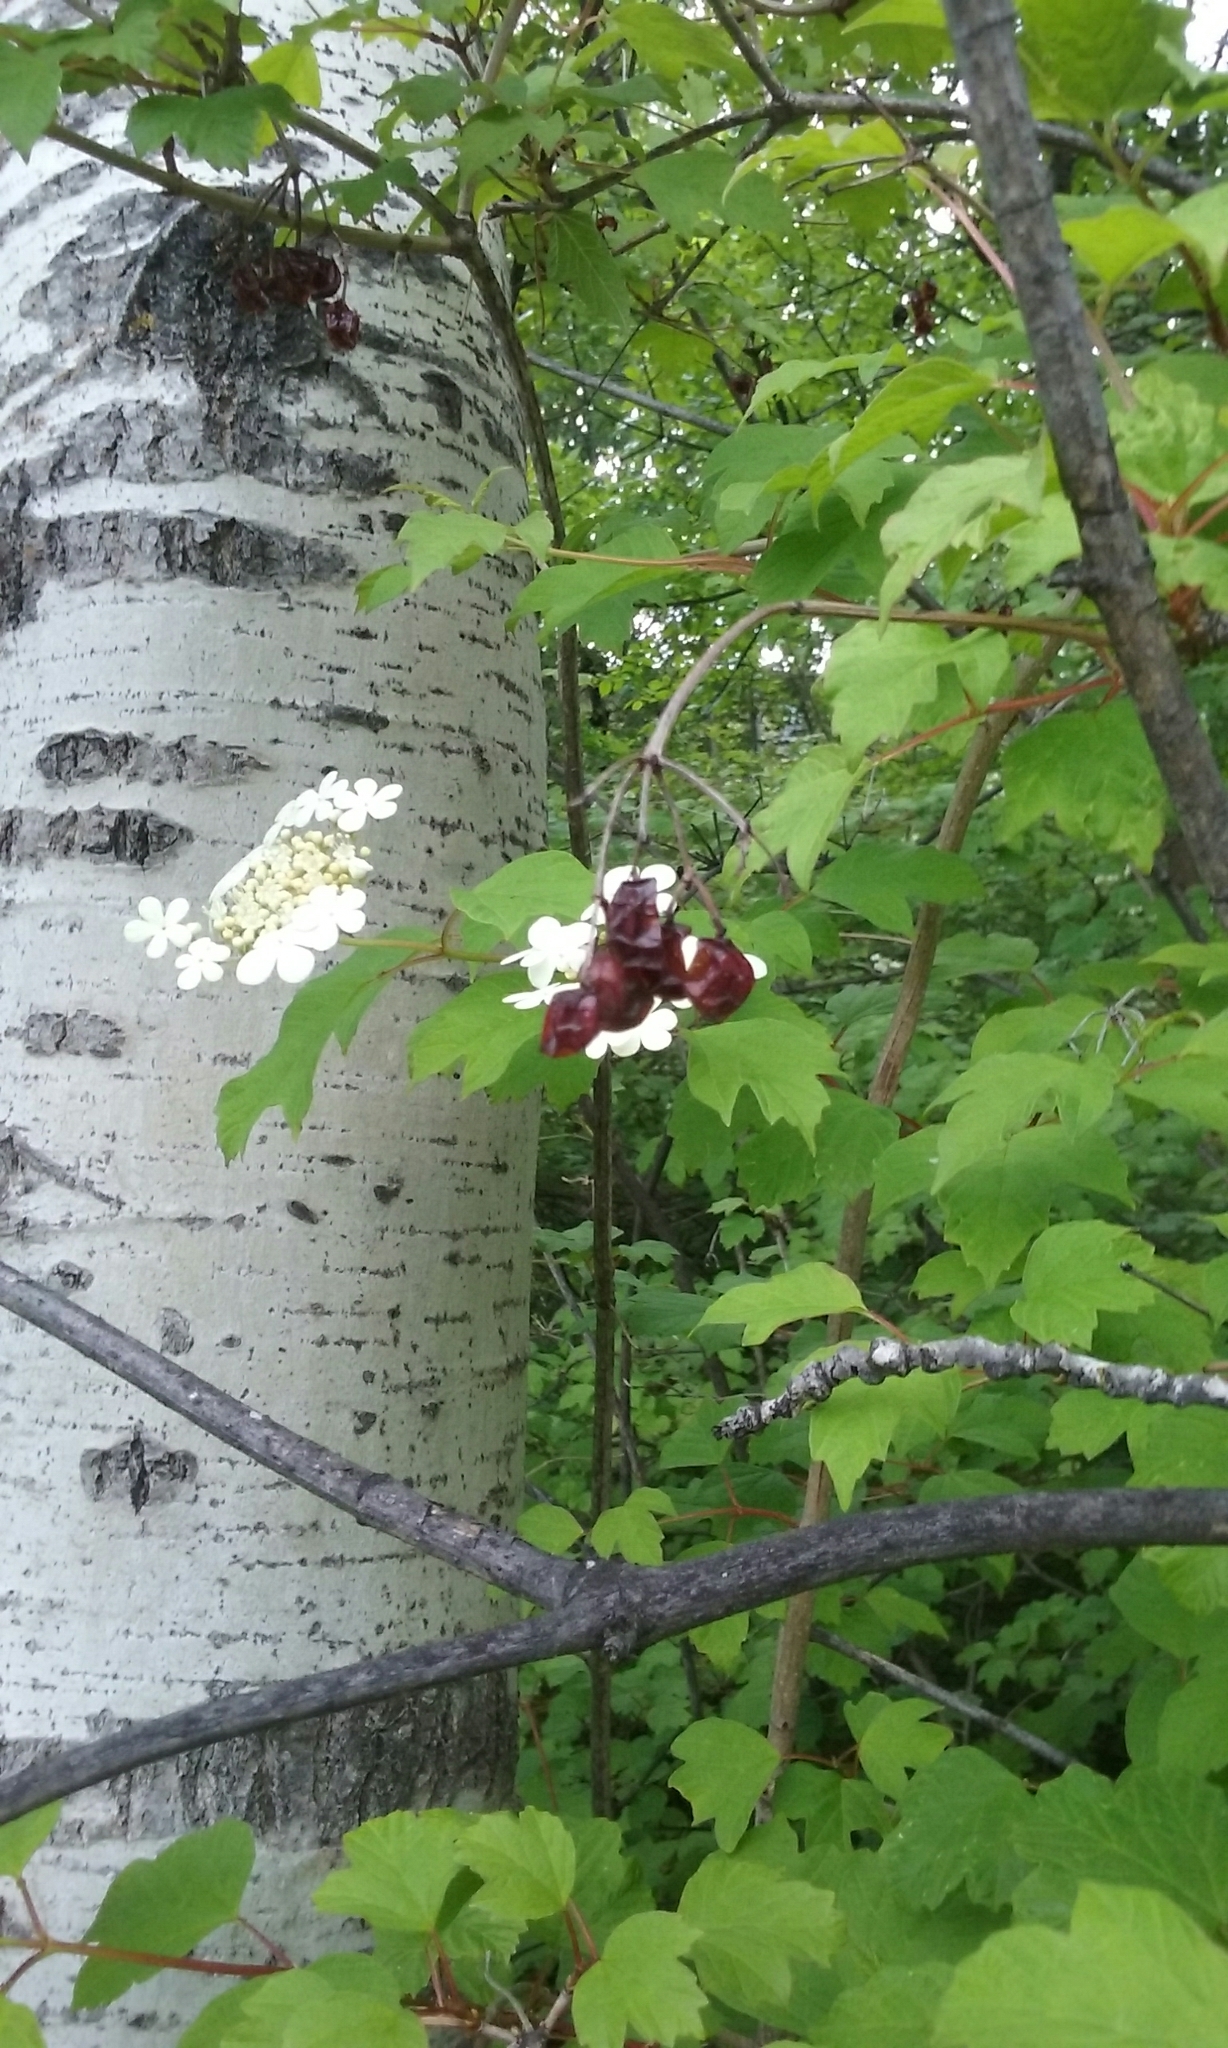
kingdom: Plantae
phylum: Tracheophyta
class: Magnoliopsida
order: Dipsacales
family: Viburnaceae
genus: Viburnum
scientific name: Viburnum opulus
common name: Guelder-rose
